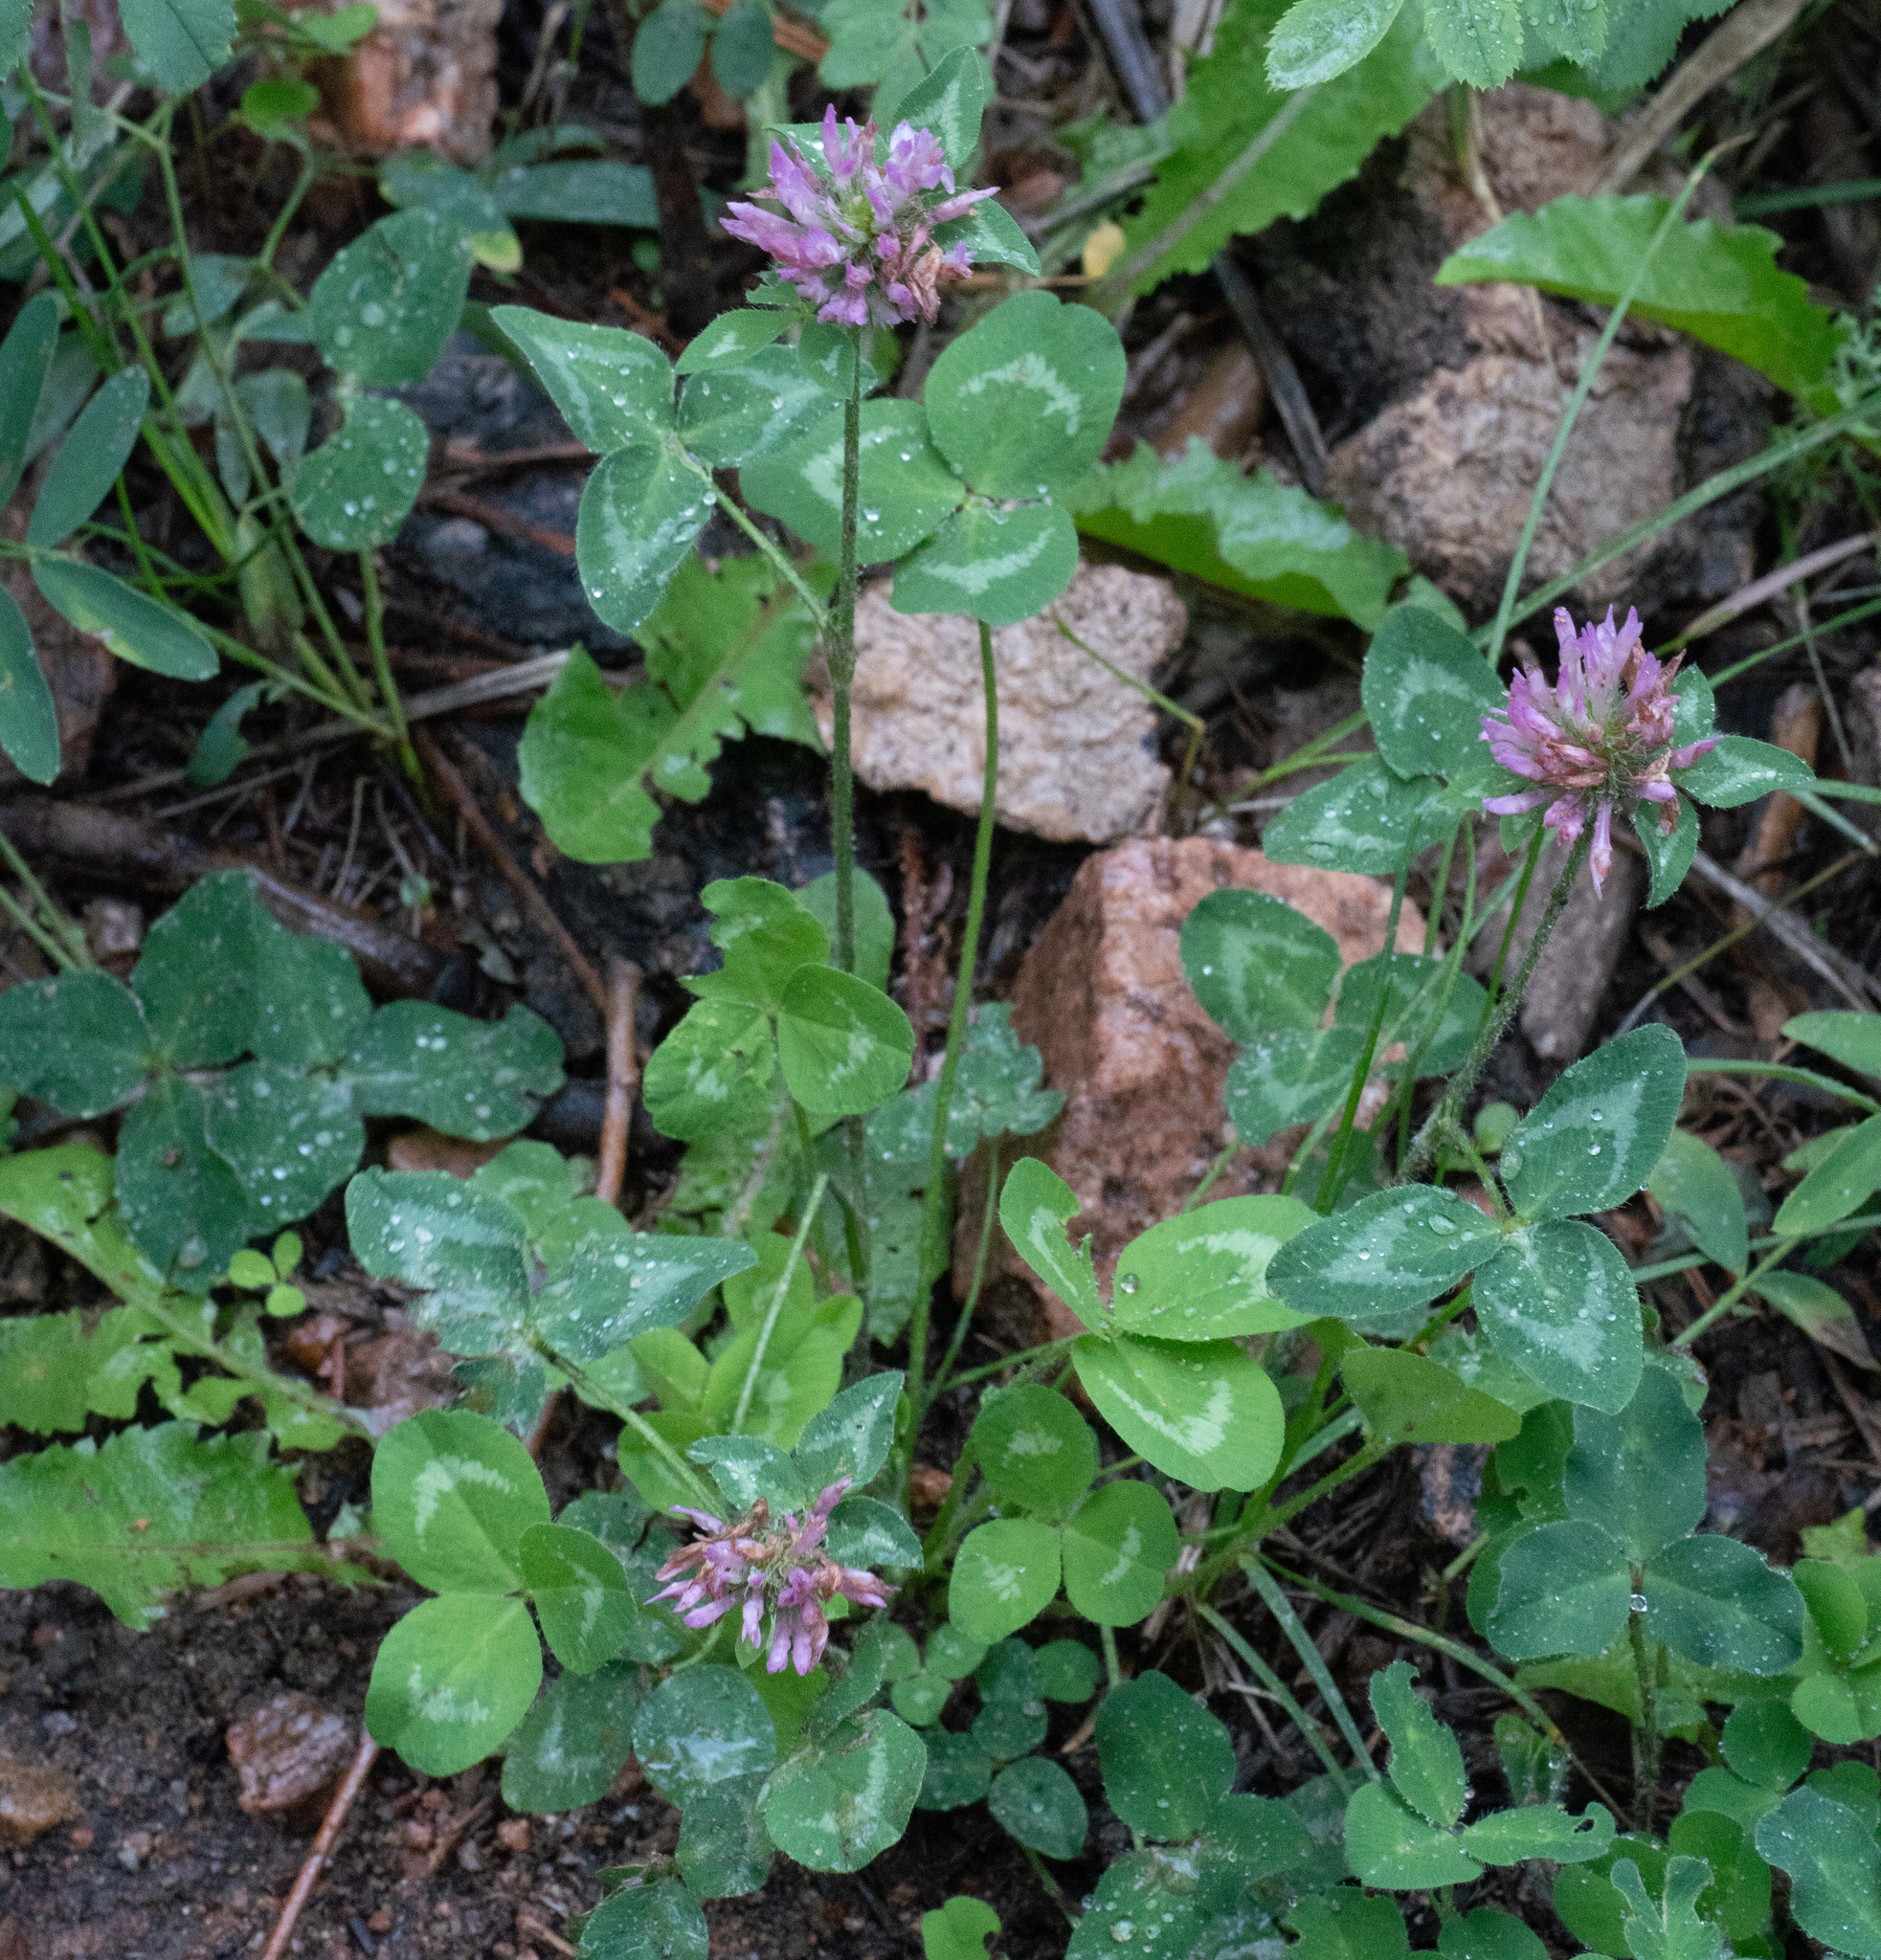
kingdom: Plantae
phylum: Tracheophyta
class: Magnoliopsida
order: Fabales
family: Fabaceae
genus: Trifolium
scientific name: Trifolium pratense
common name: Red clover
